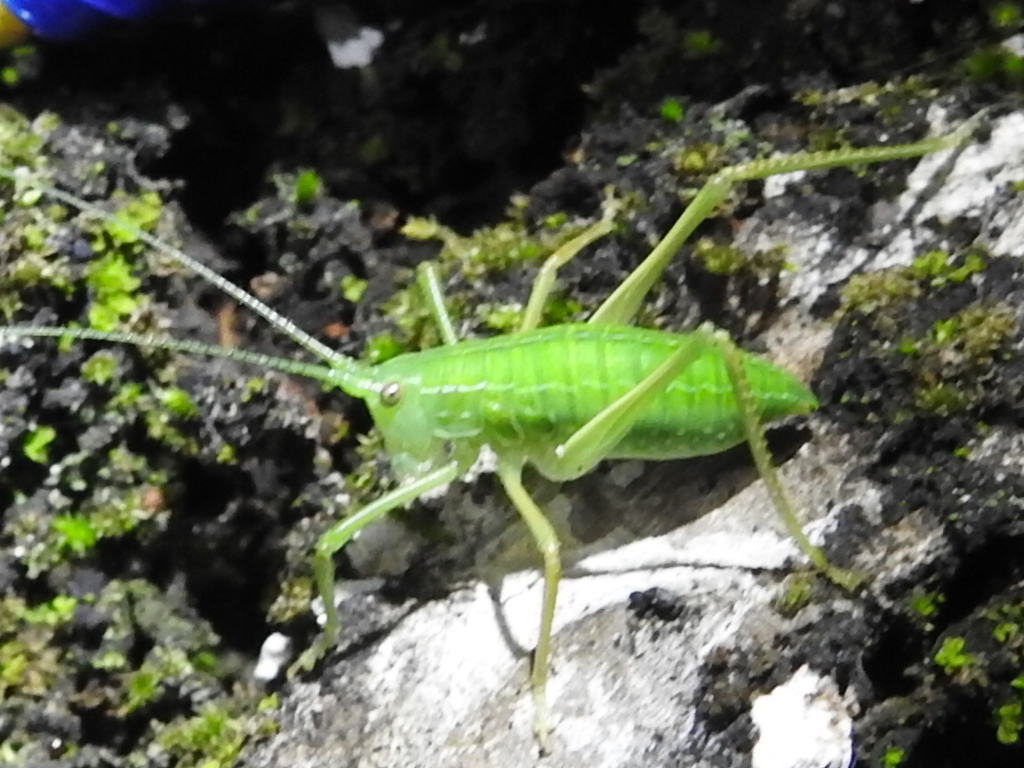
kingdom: Animalia
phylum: Arthropoda
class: Insecta
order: Orthoptera
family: Tettigoniidae
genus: Pterophylla
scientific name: Pterophylla camellifolia
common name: Common true katydid
